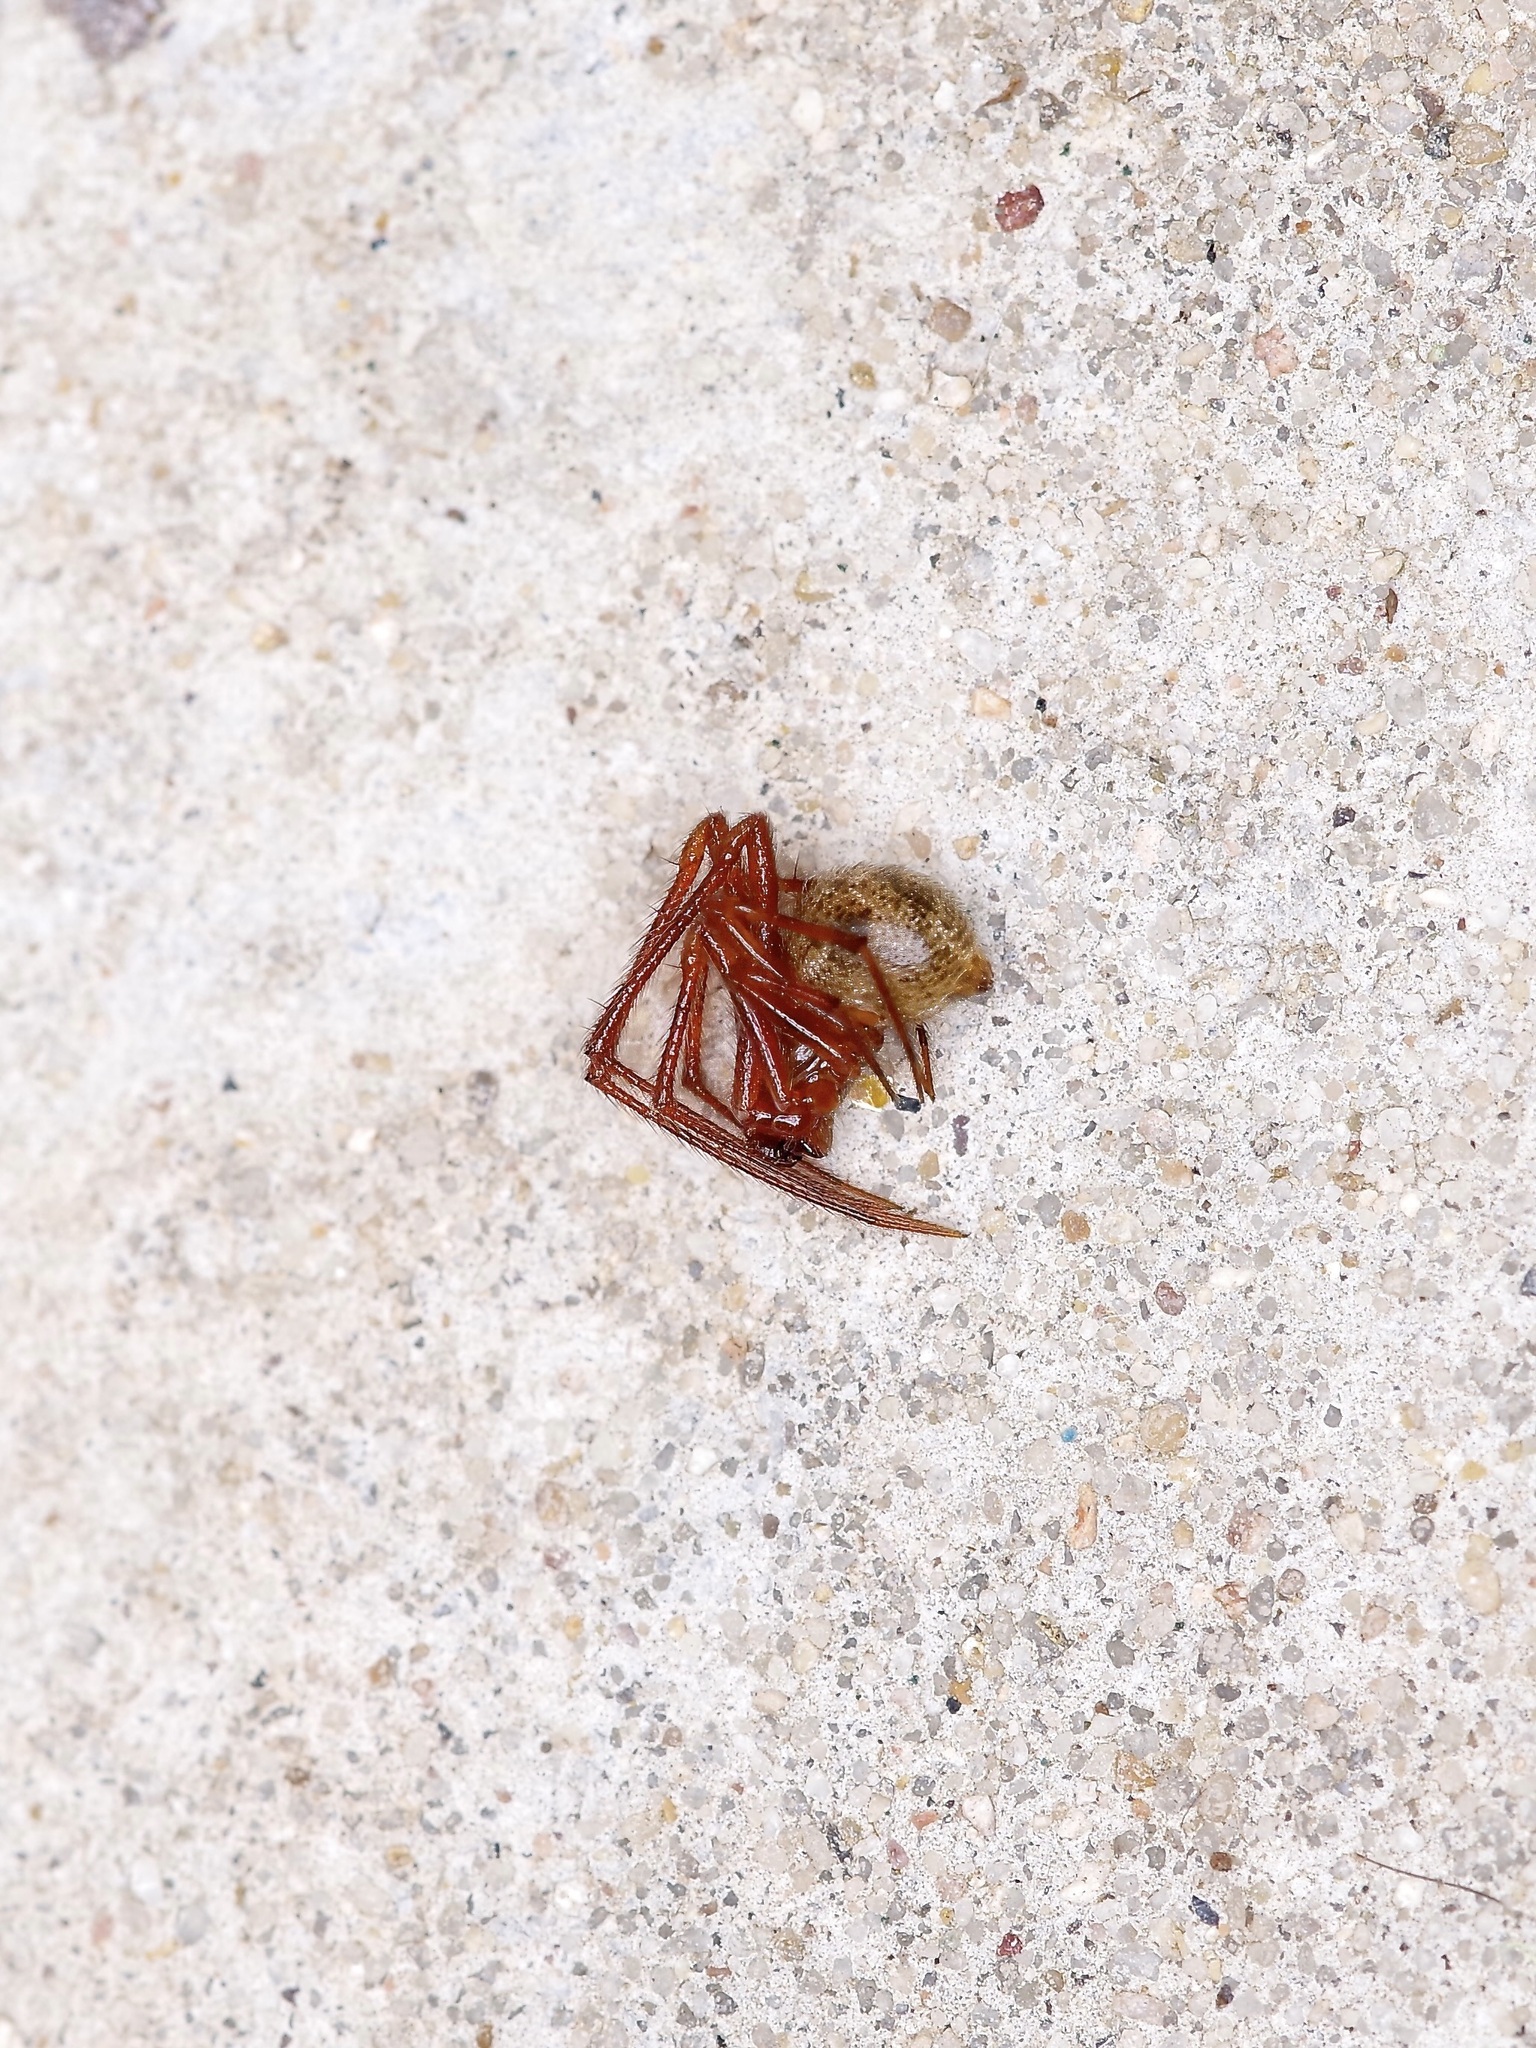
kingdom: Animalia
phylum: Arthropoda
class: Arachnida
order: Araneae
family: Theridiidae
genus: Nesticodes
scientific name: Nesticodes rufipes
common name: Cobweb spiders
